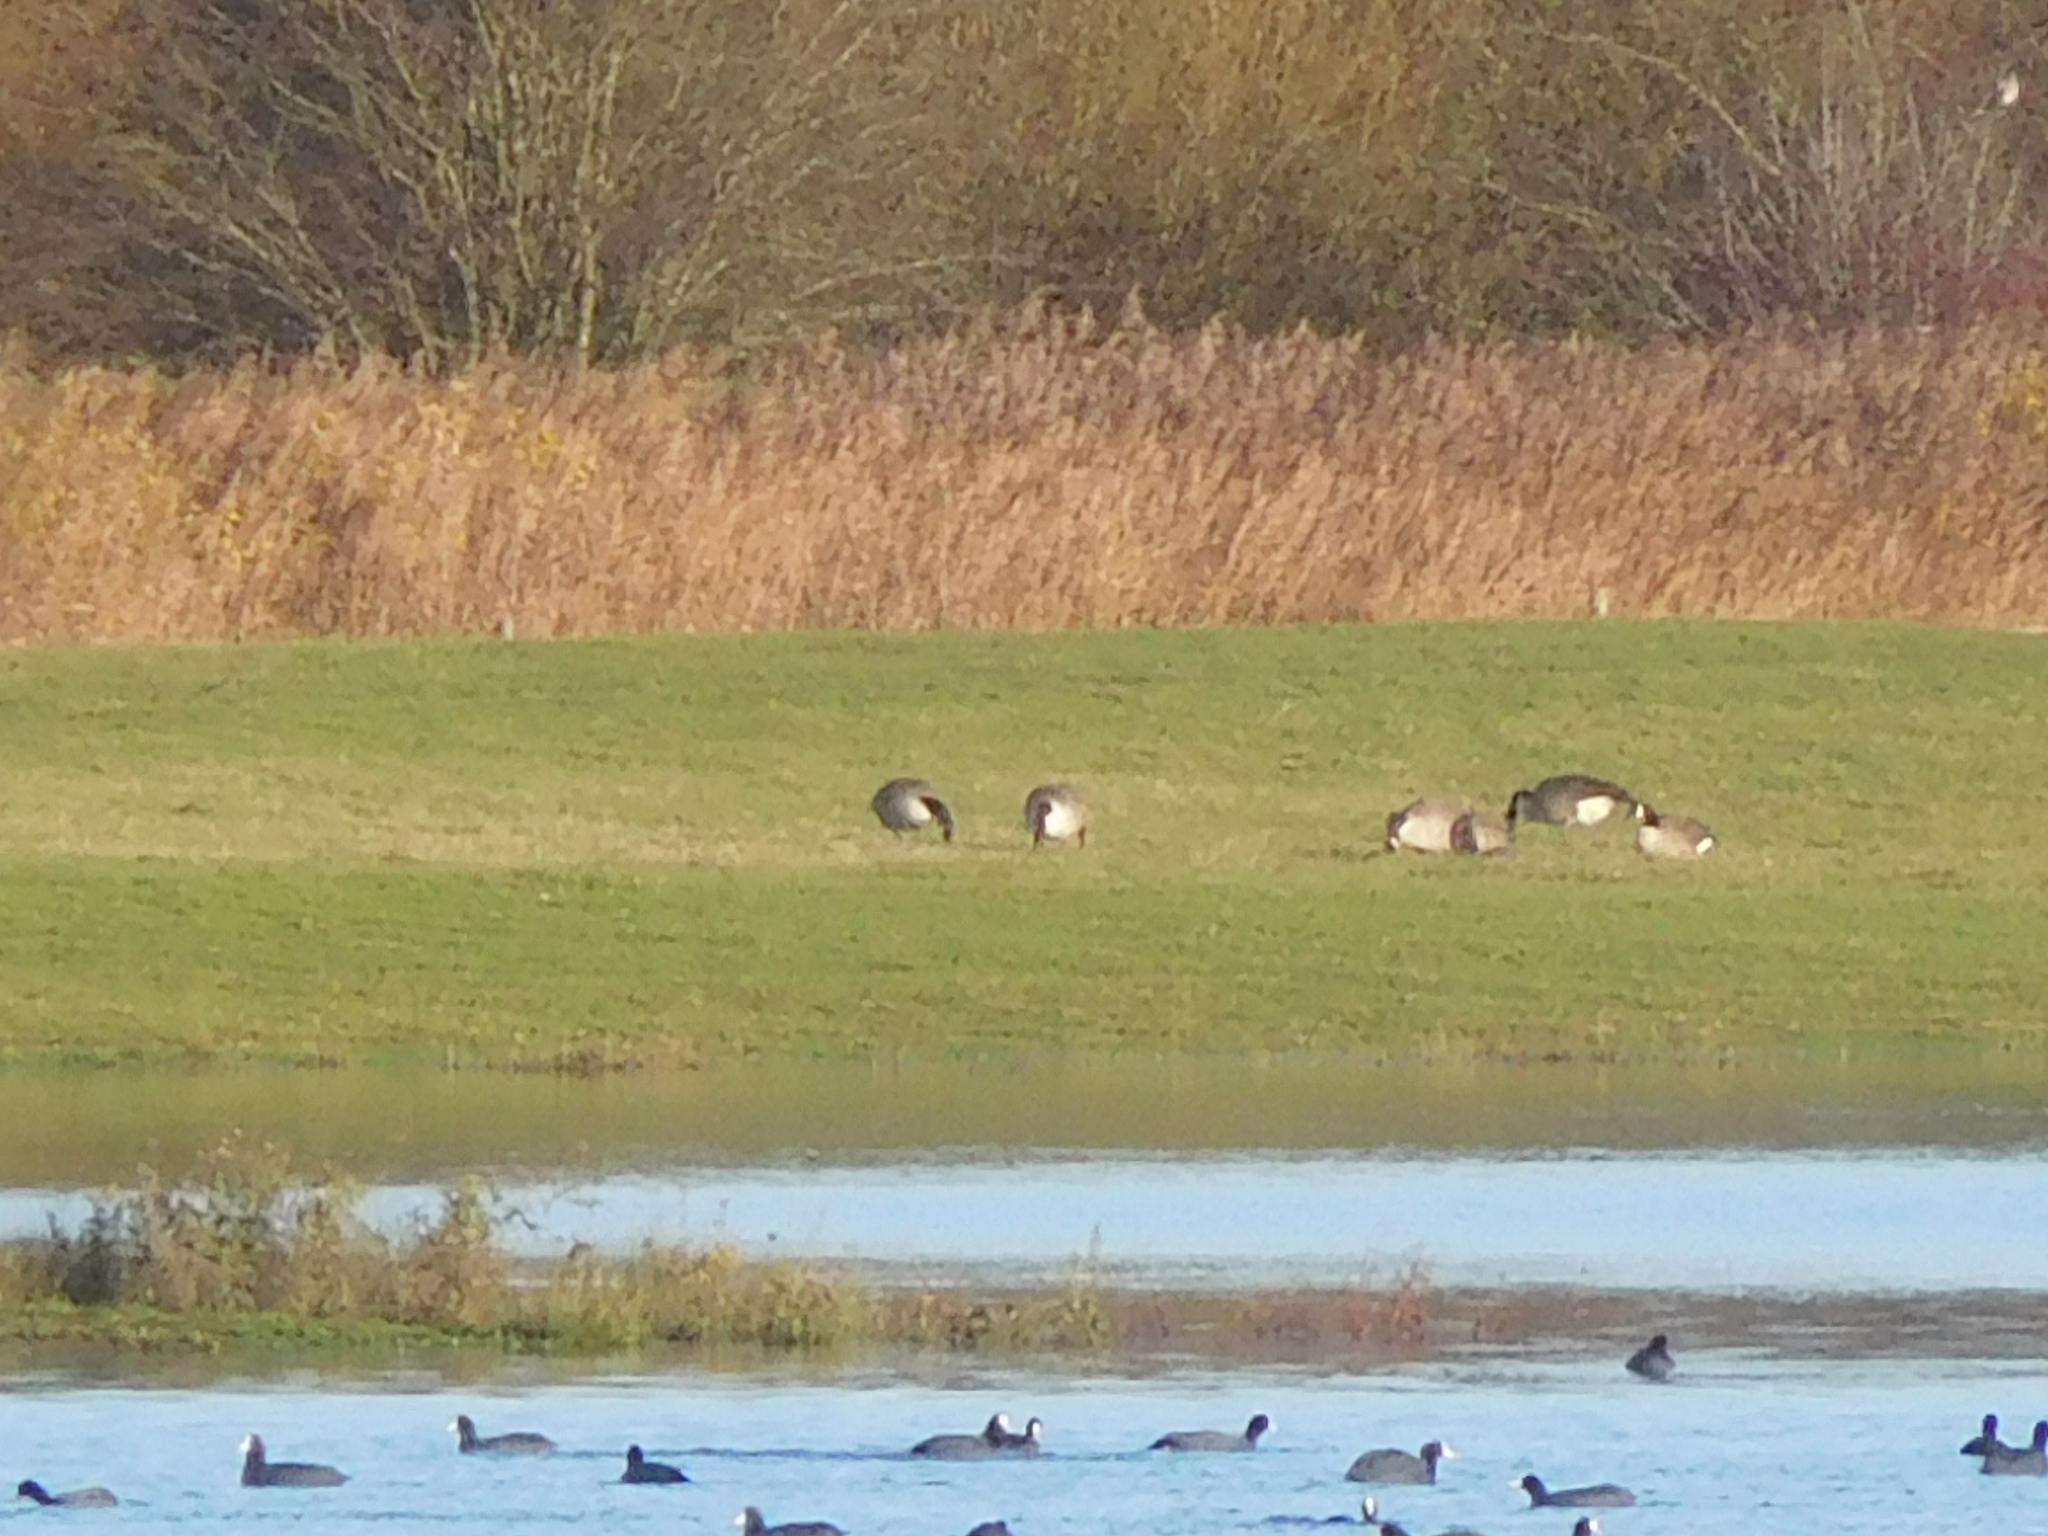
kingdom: Animalia
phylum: Chordata
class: Aves
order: Anseriformes
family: Anatidae
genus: Branta
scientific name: Branta canadensis
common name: Canada goose
